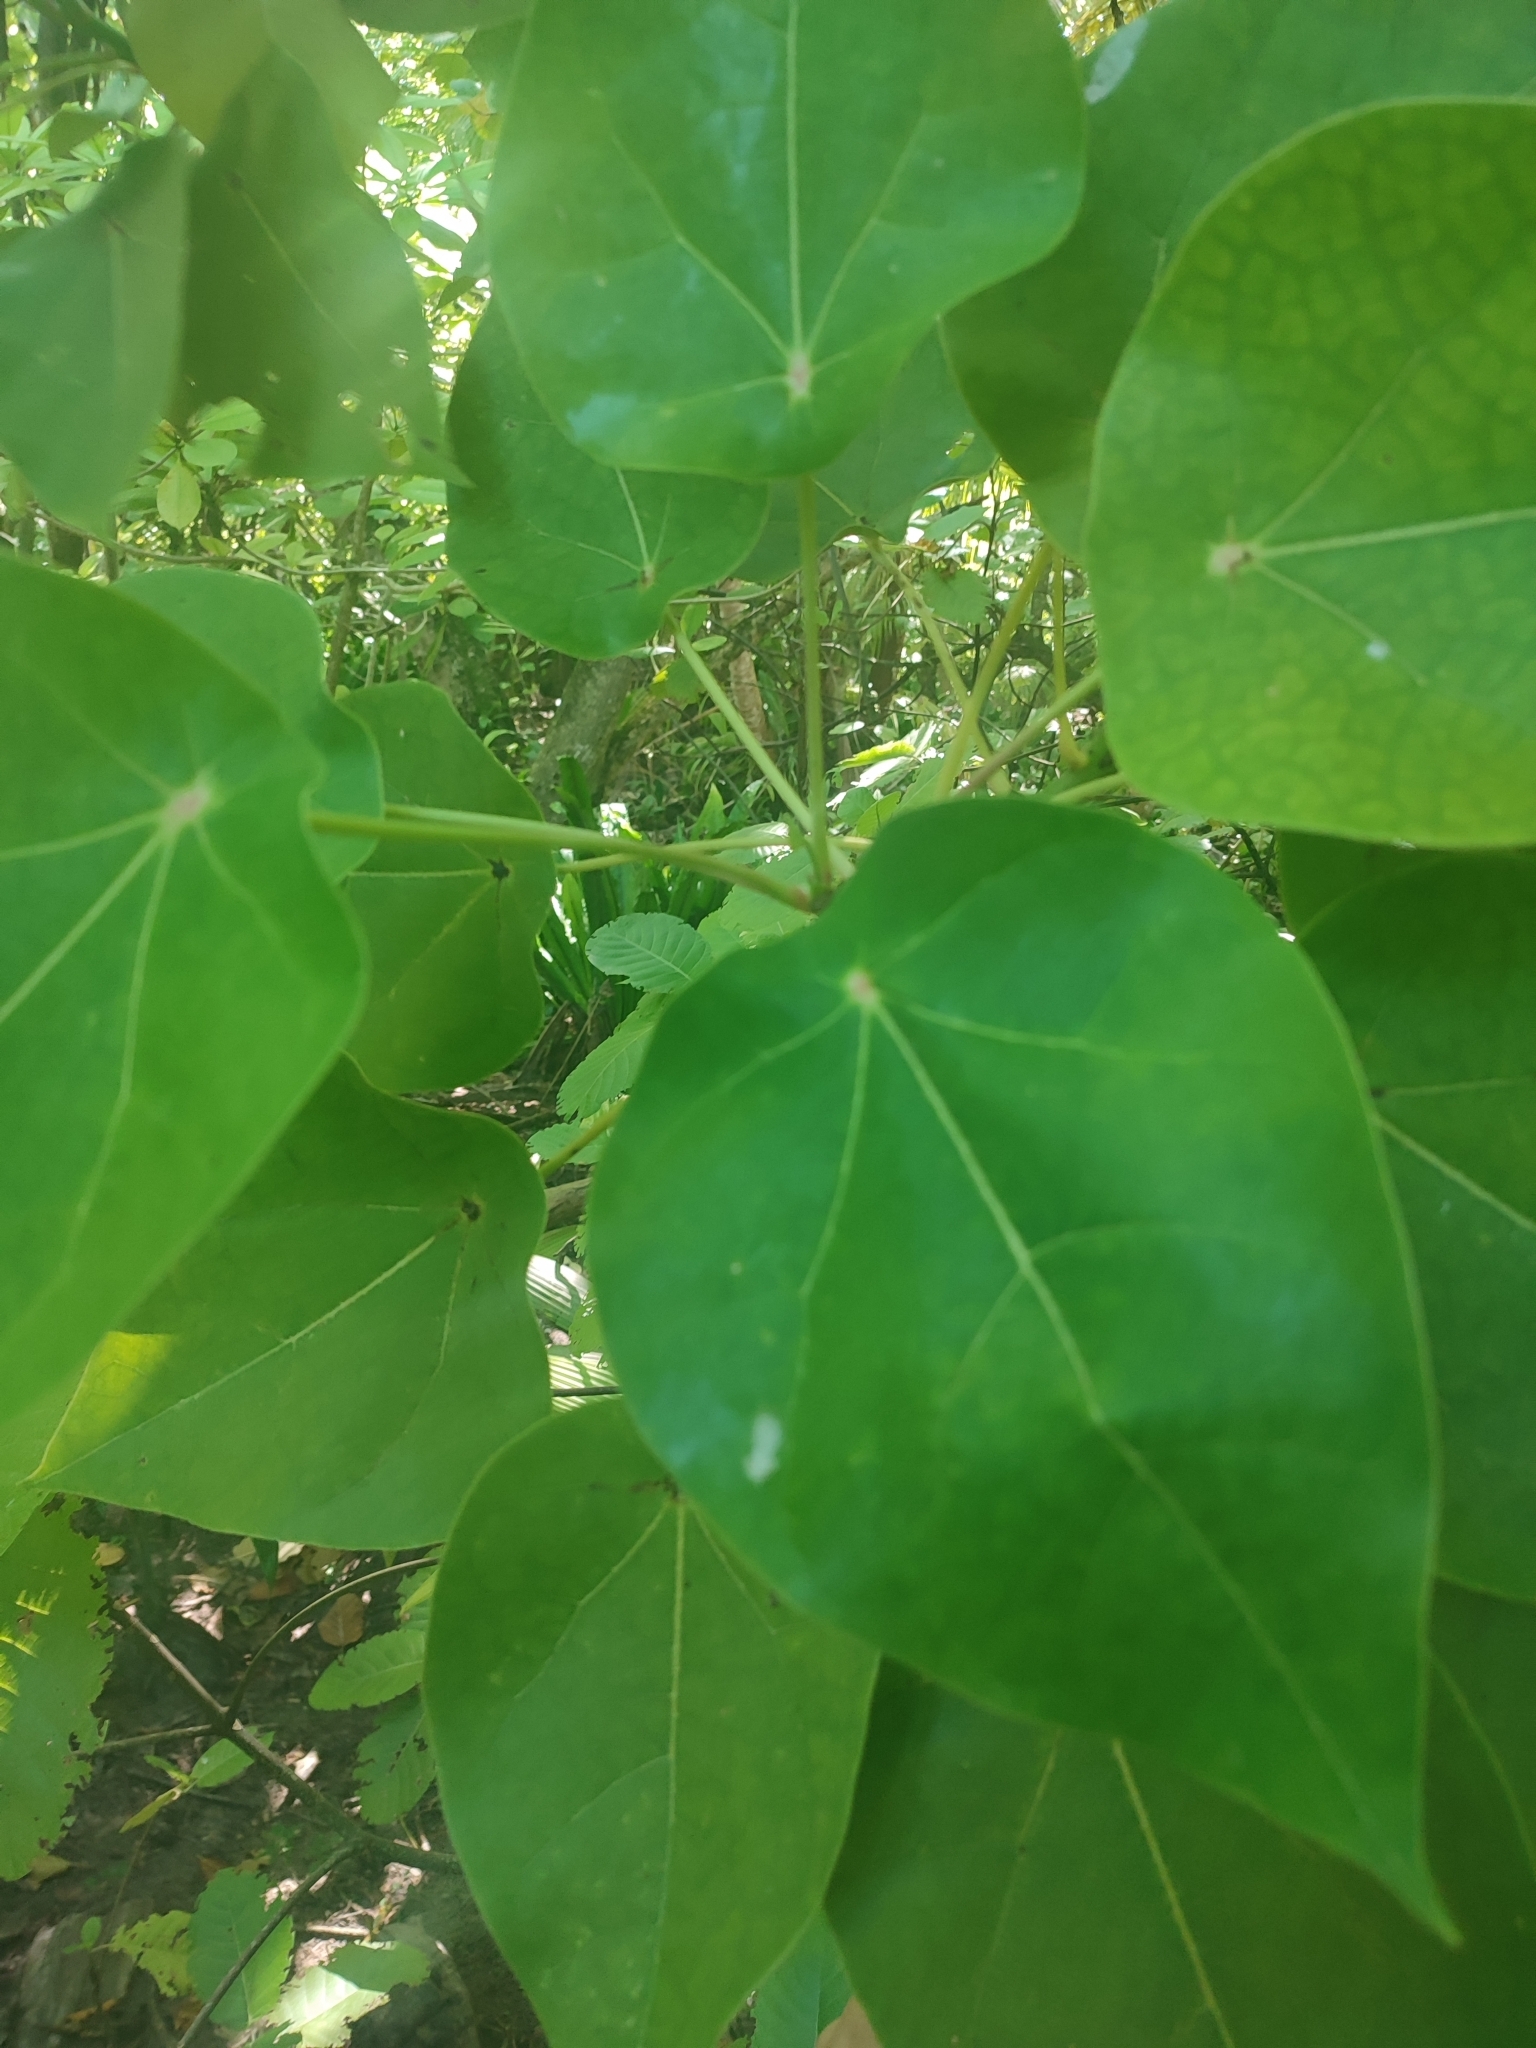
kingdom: Plantae
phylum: Tracheophyta
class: Magnoliopsida
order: Laurales
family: Hernandiaceae
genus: Hernandia
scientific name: Hernandia nymphaeifolia
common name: Sea hearse
